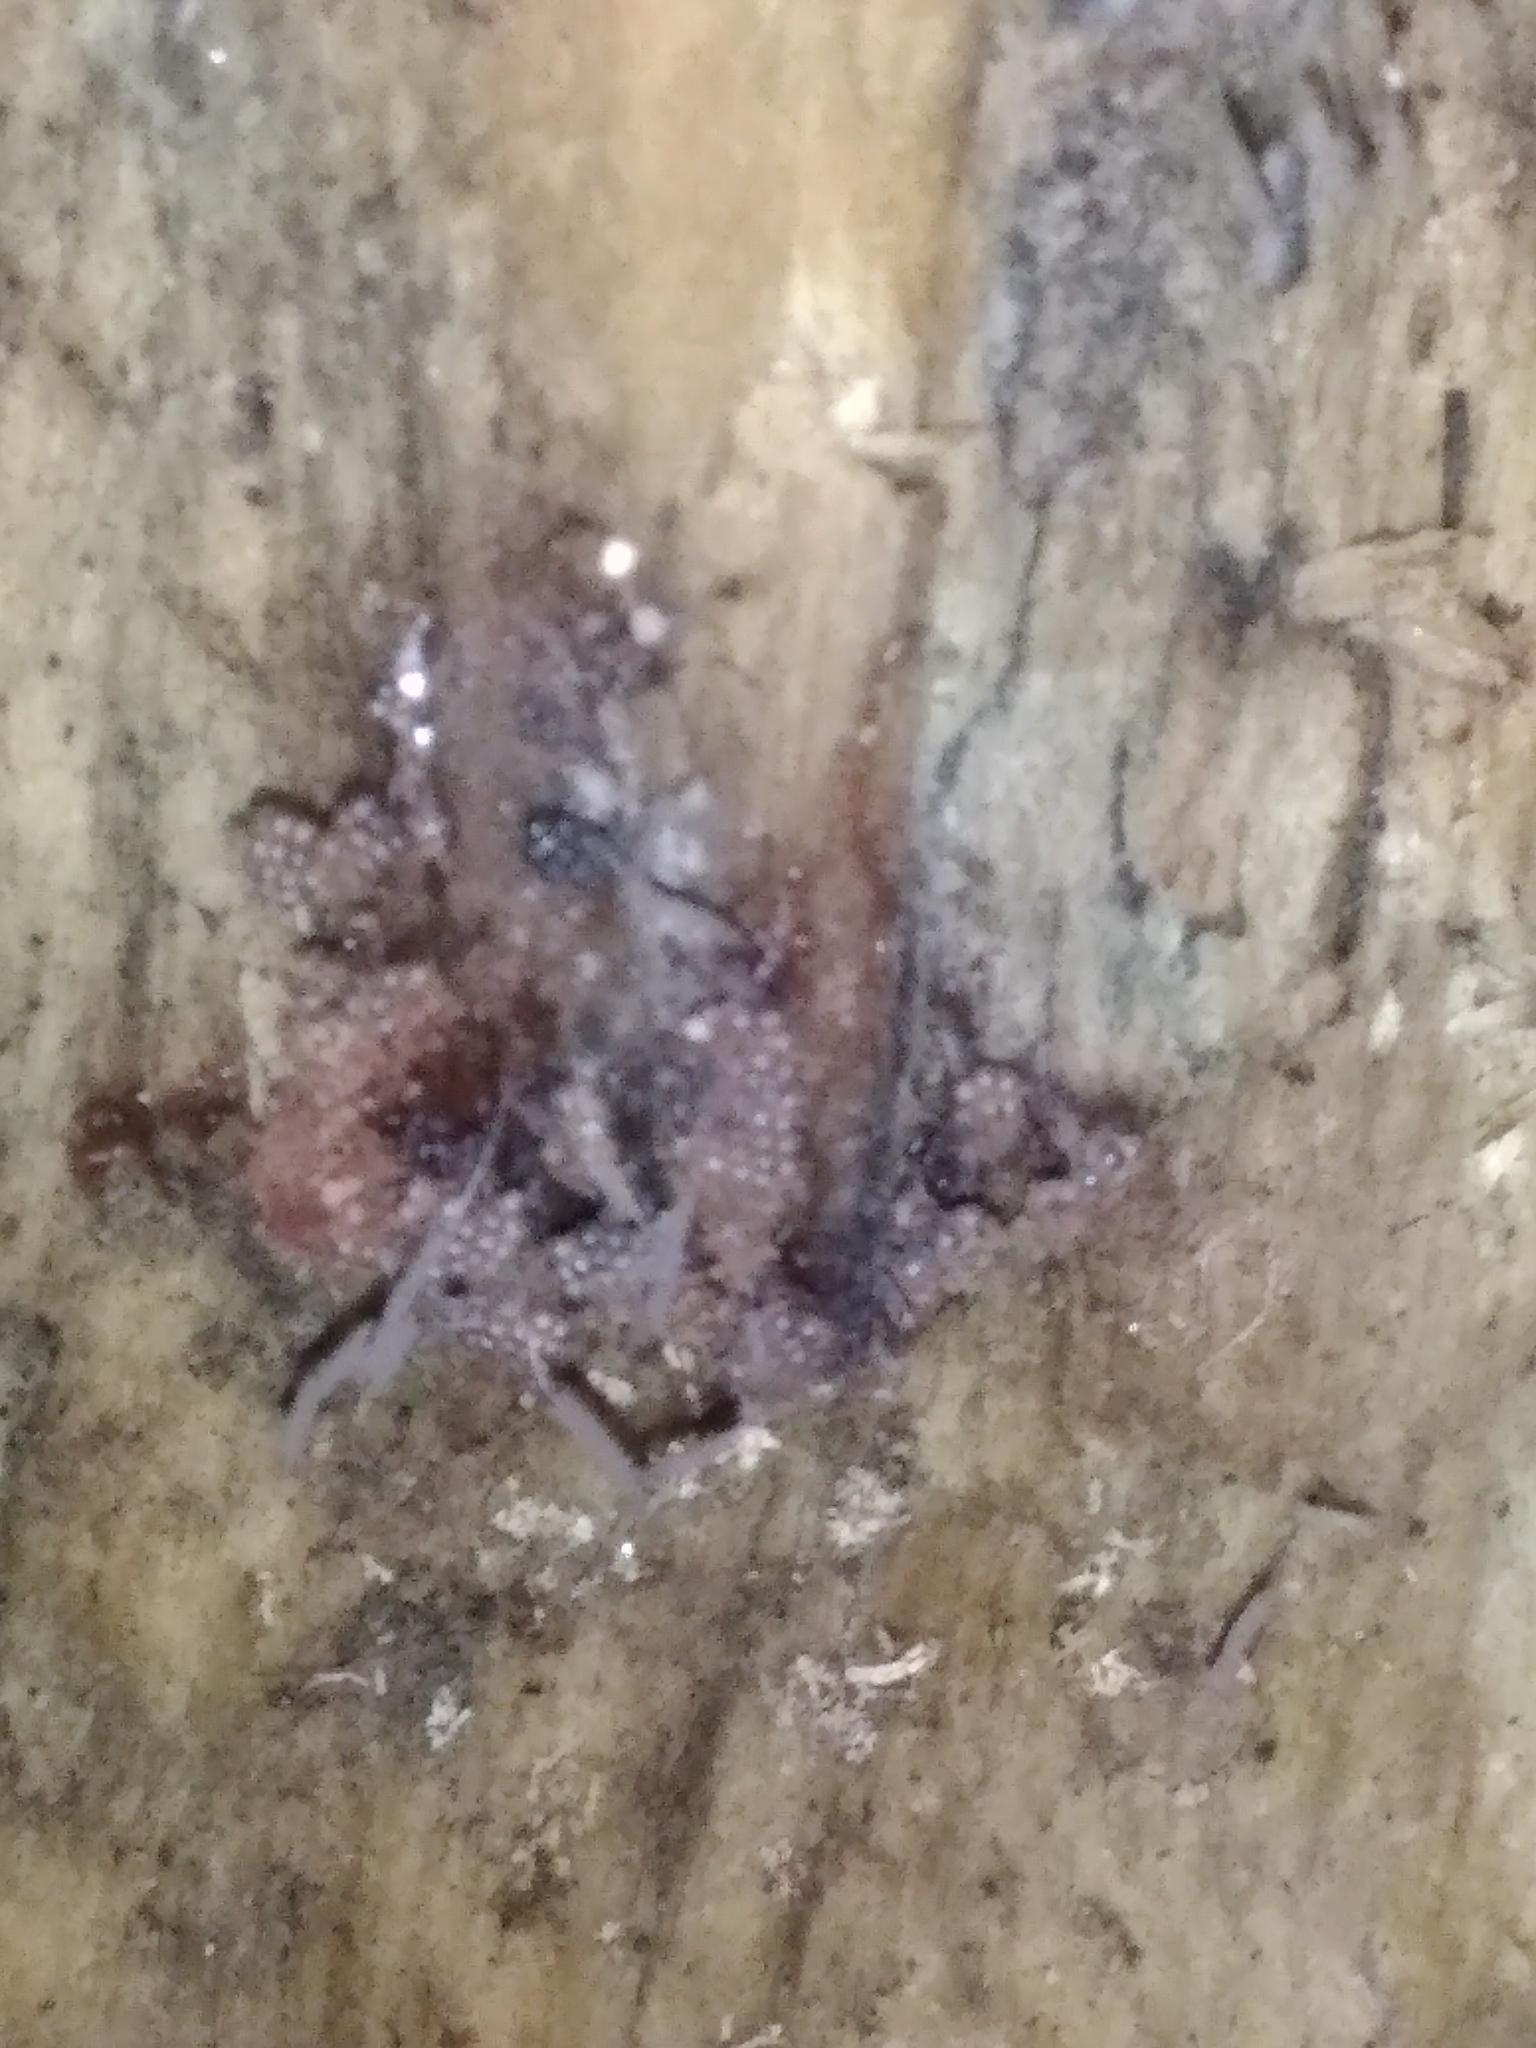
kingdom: Protozoa
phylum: Mycetozoa
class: Myxomycetes
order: Trichiales
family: Trichiaceae
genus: Metatrichia
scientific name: Metatrichia vesparia
